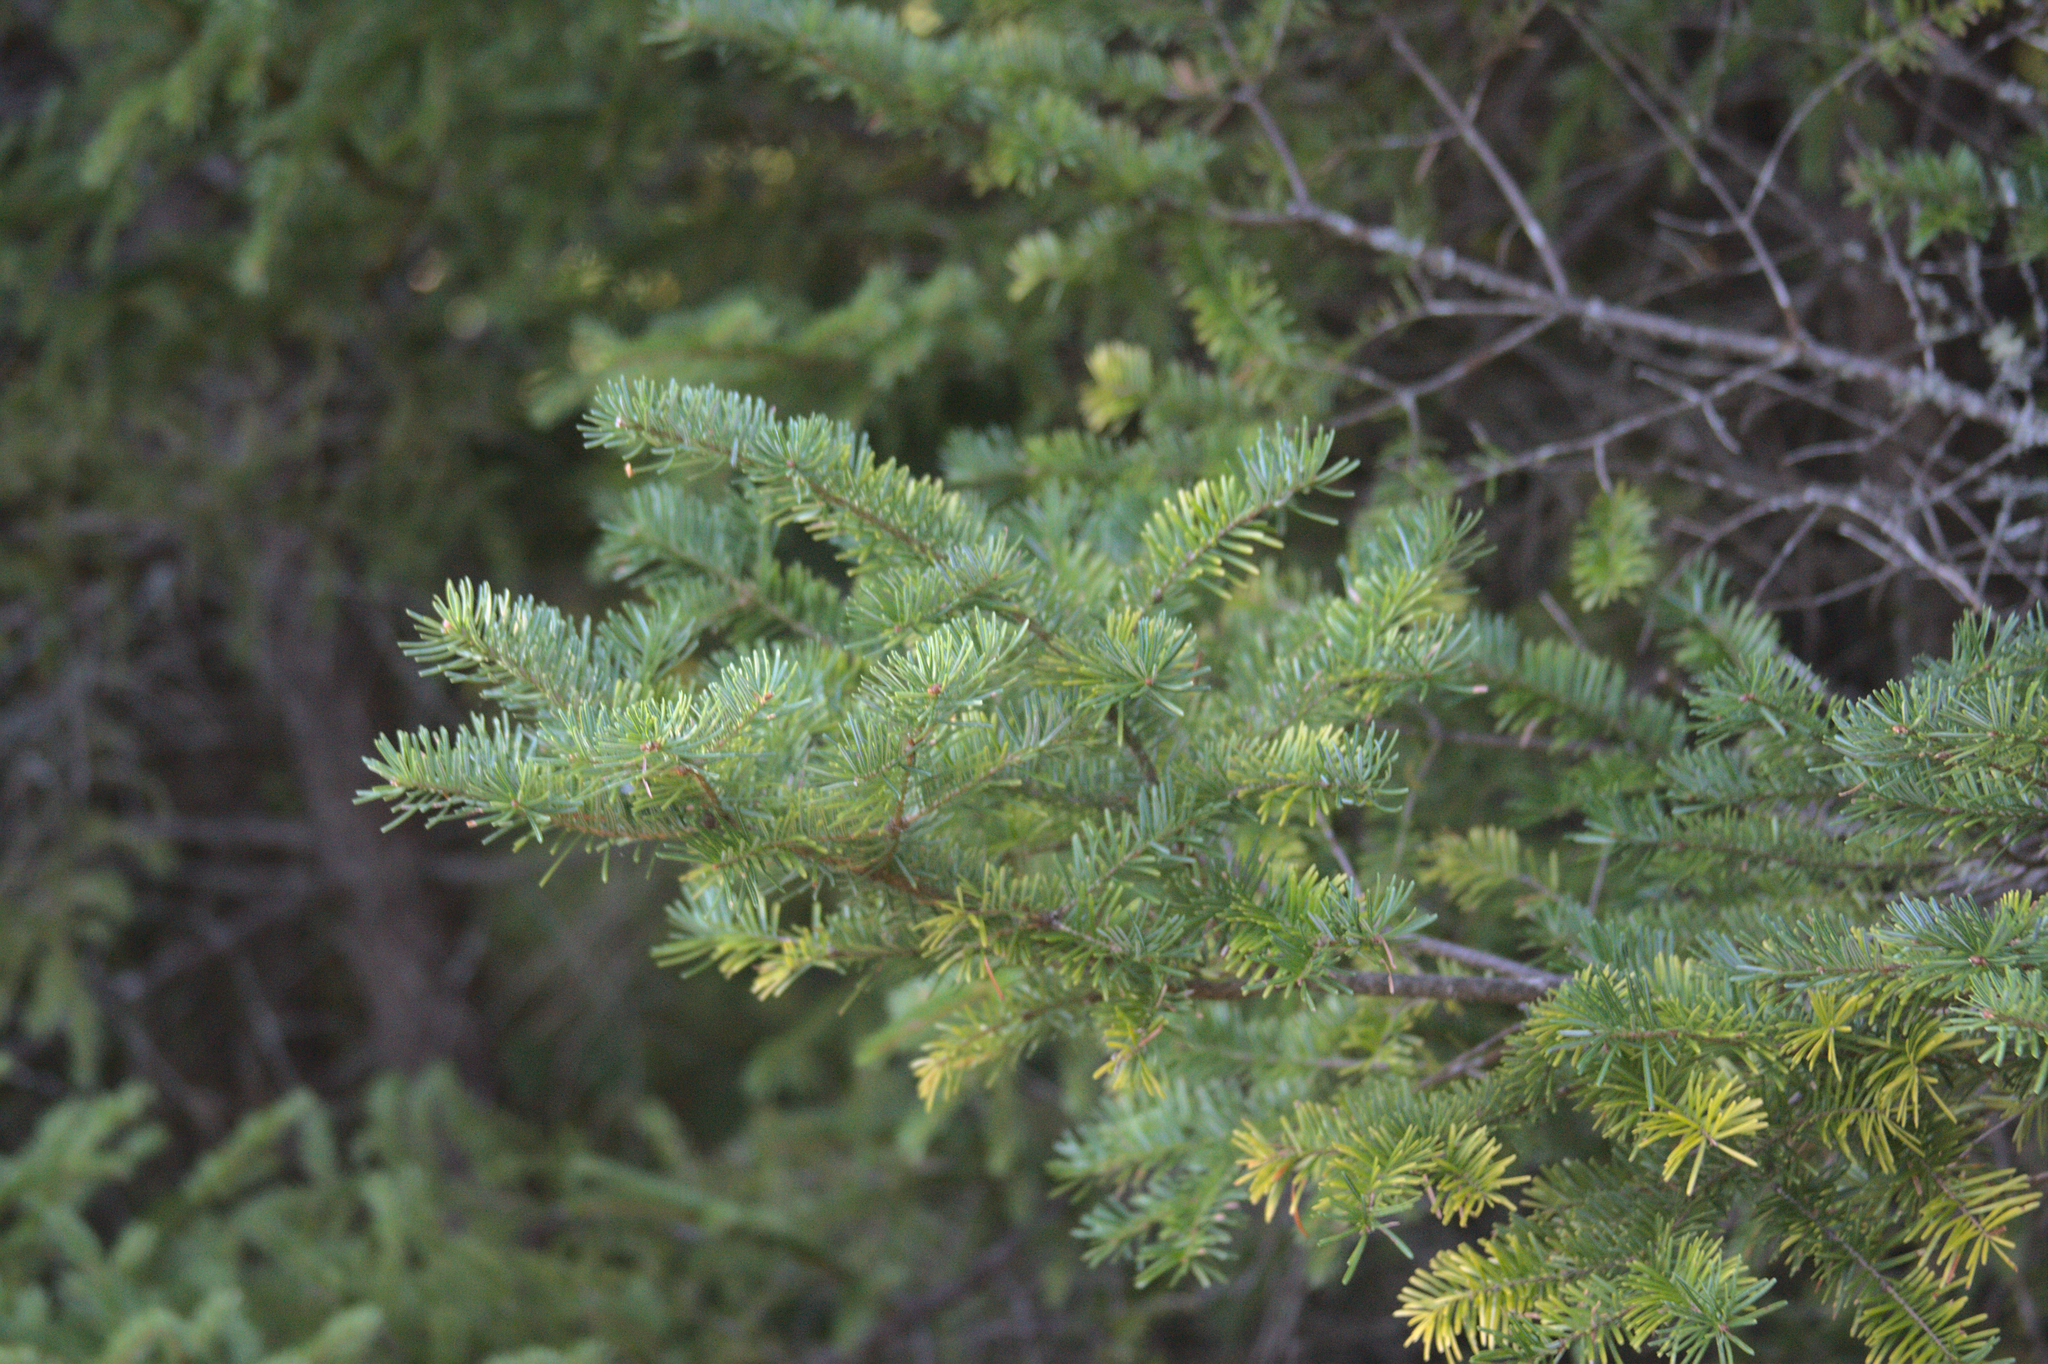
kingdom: Plantae
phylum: Tracheophyta
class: Pinopsida
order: Pinales
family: Pinaceae
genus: Abies
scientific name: Abies balsamea
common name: Balsam fir
